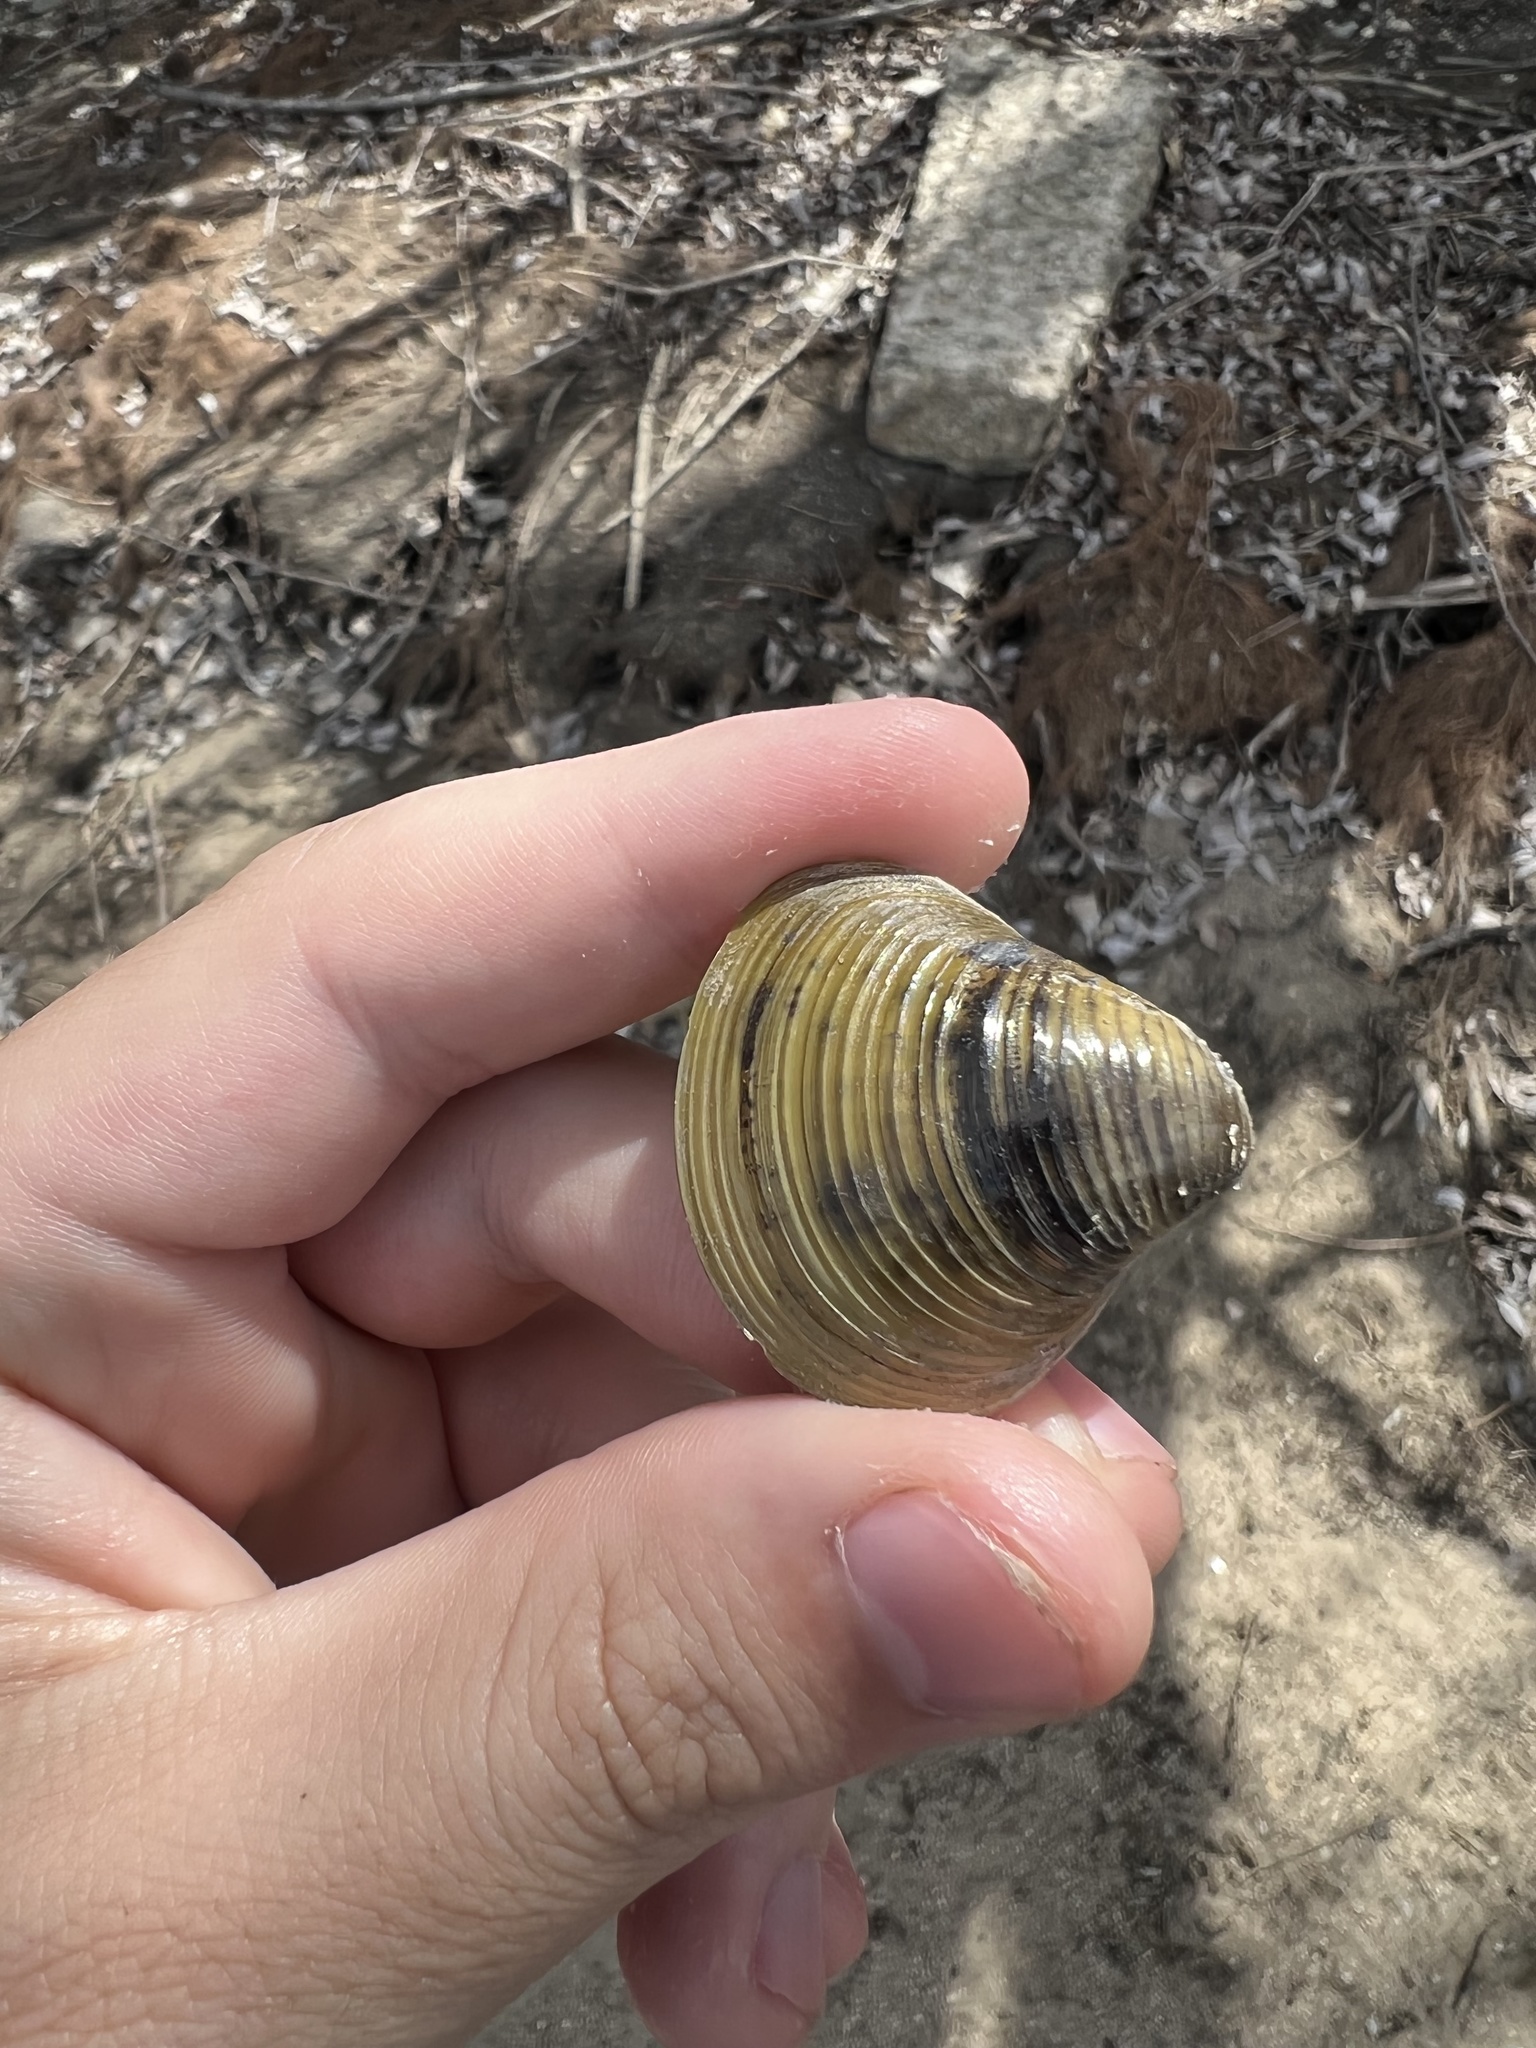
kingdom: Animalia
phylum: Mollusca
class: Bivalvia
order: Venerida
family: Cyrenidae
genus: Corbicula
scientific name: Corbicula fluminea
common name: Asian clam
